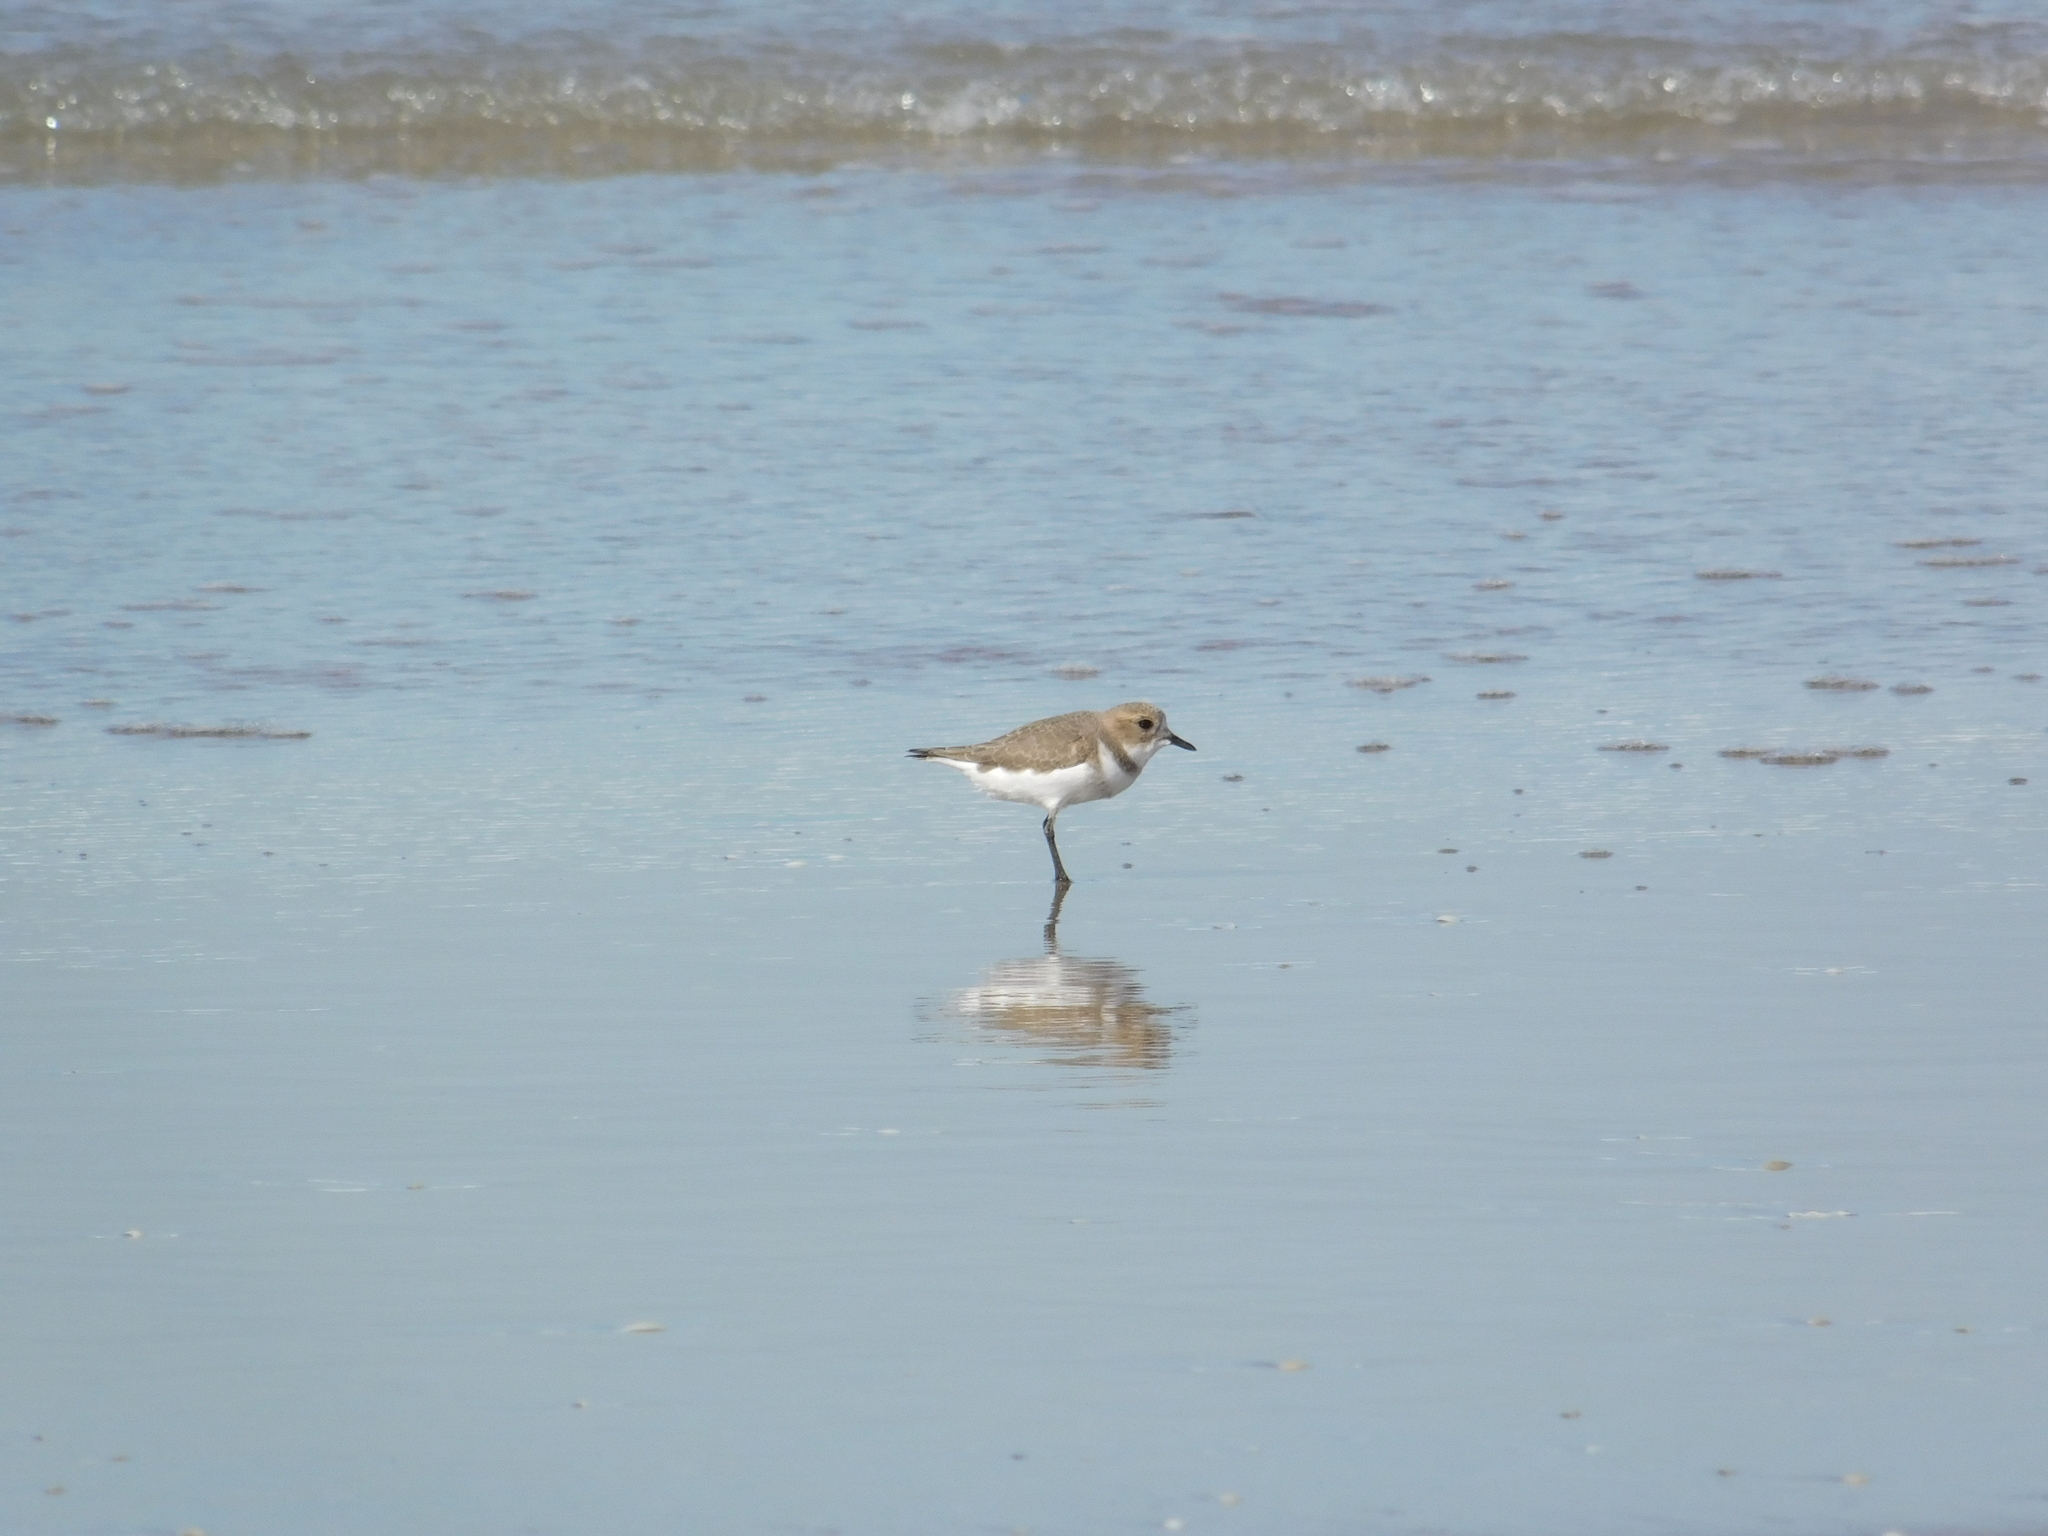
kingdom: Animalia
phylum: Chordata
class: Aves
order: Charadriiformes
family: Charadriidae
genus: Anarhynchus
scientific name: Anarhynchus
